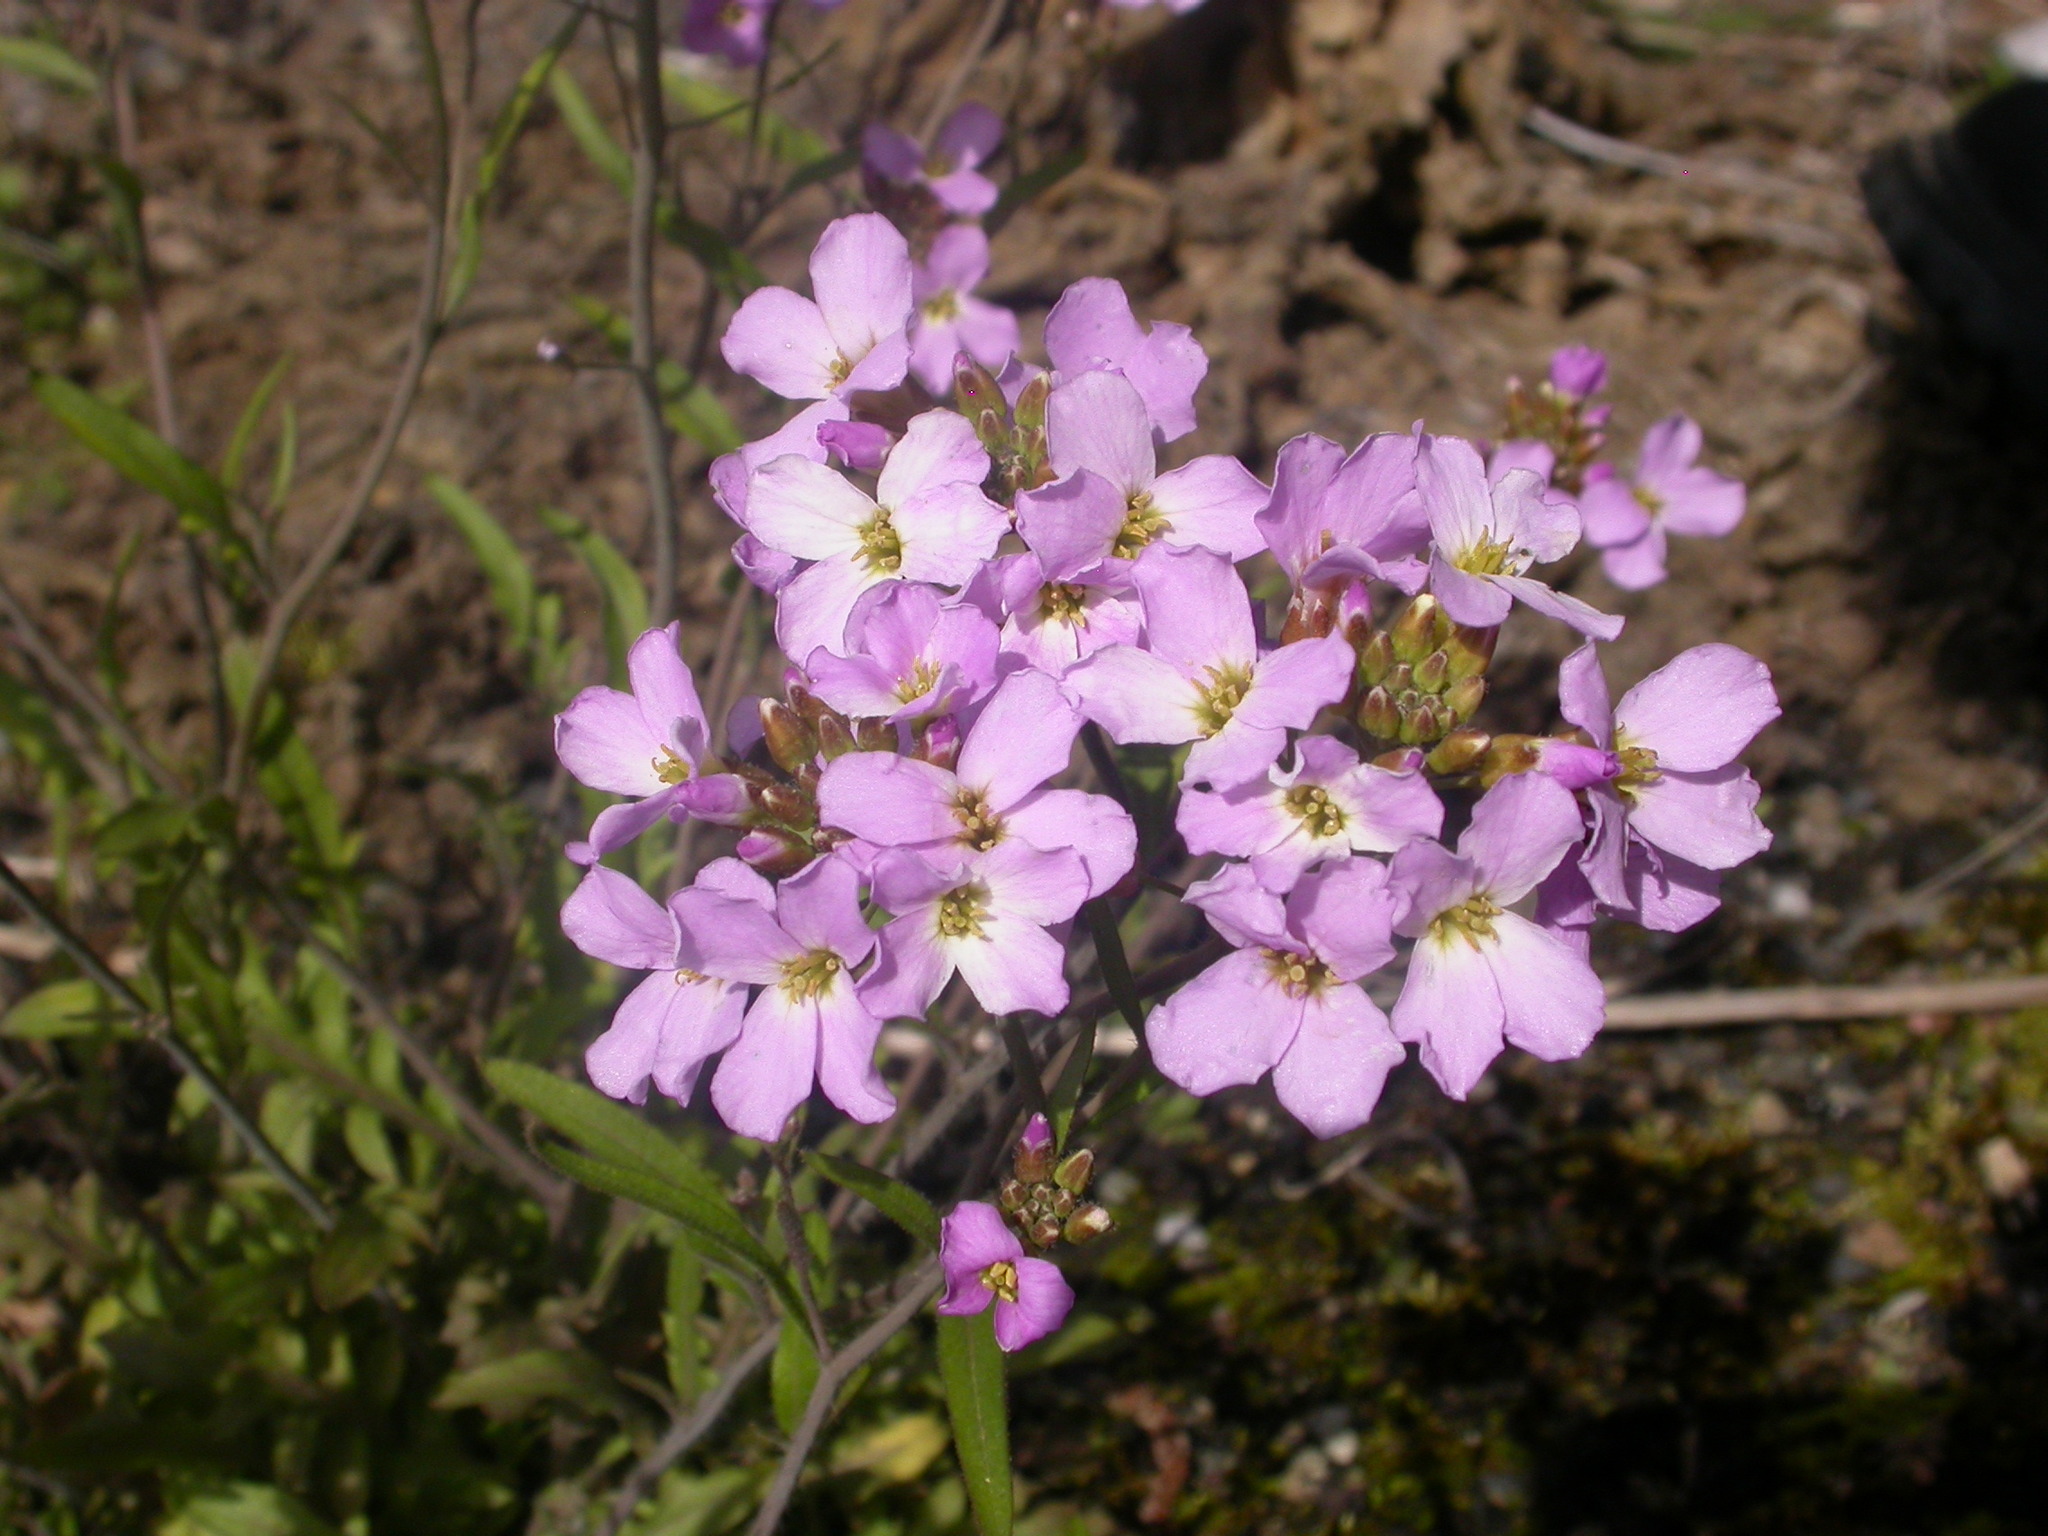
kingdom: Plantae
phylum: Tracheophyta
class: Magnoliopsida
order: Brassicales
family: Brassicaceae
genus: Arabidopsis
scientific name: Arabidopsis arenosa
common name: Sand rock-cress
